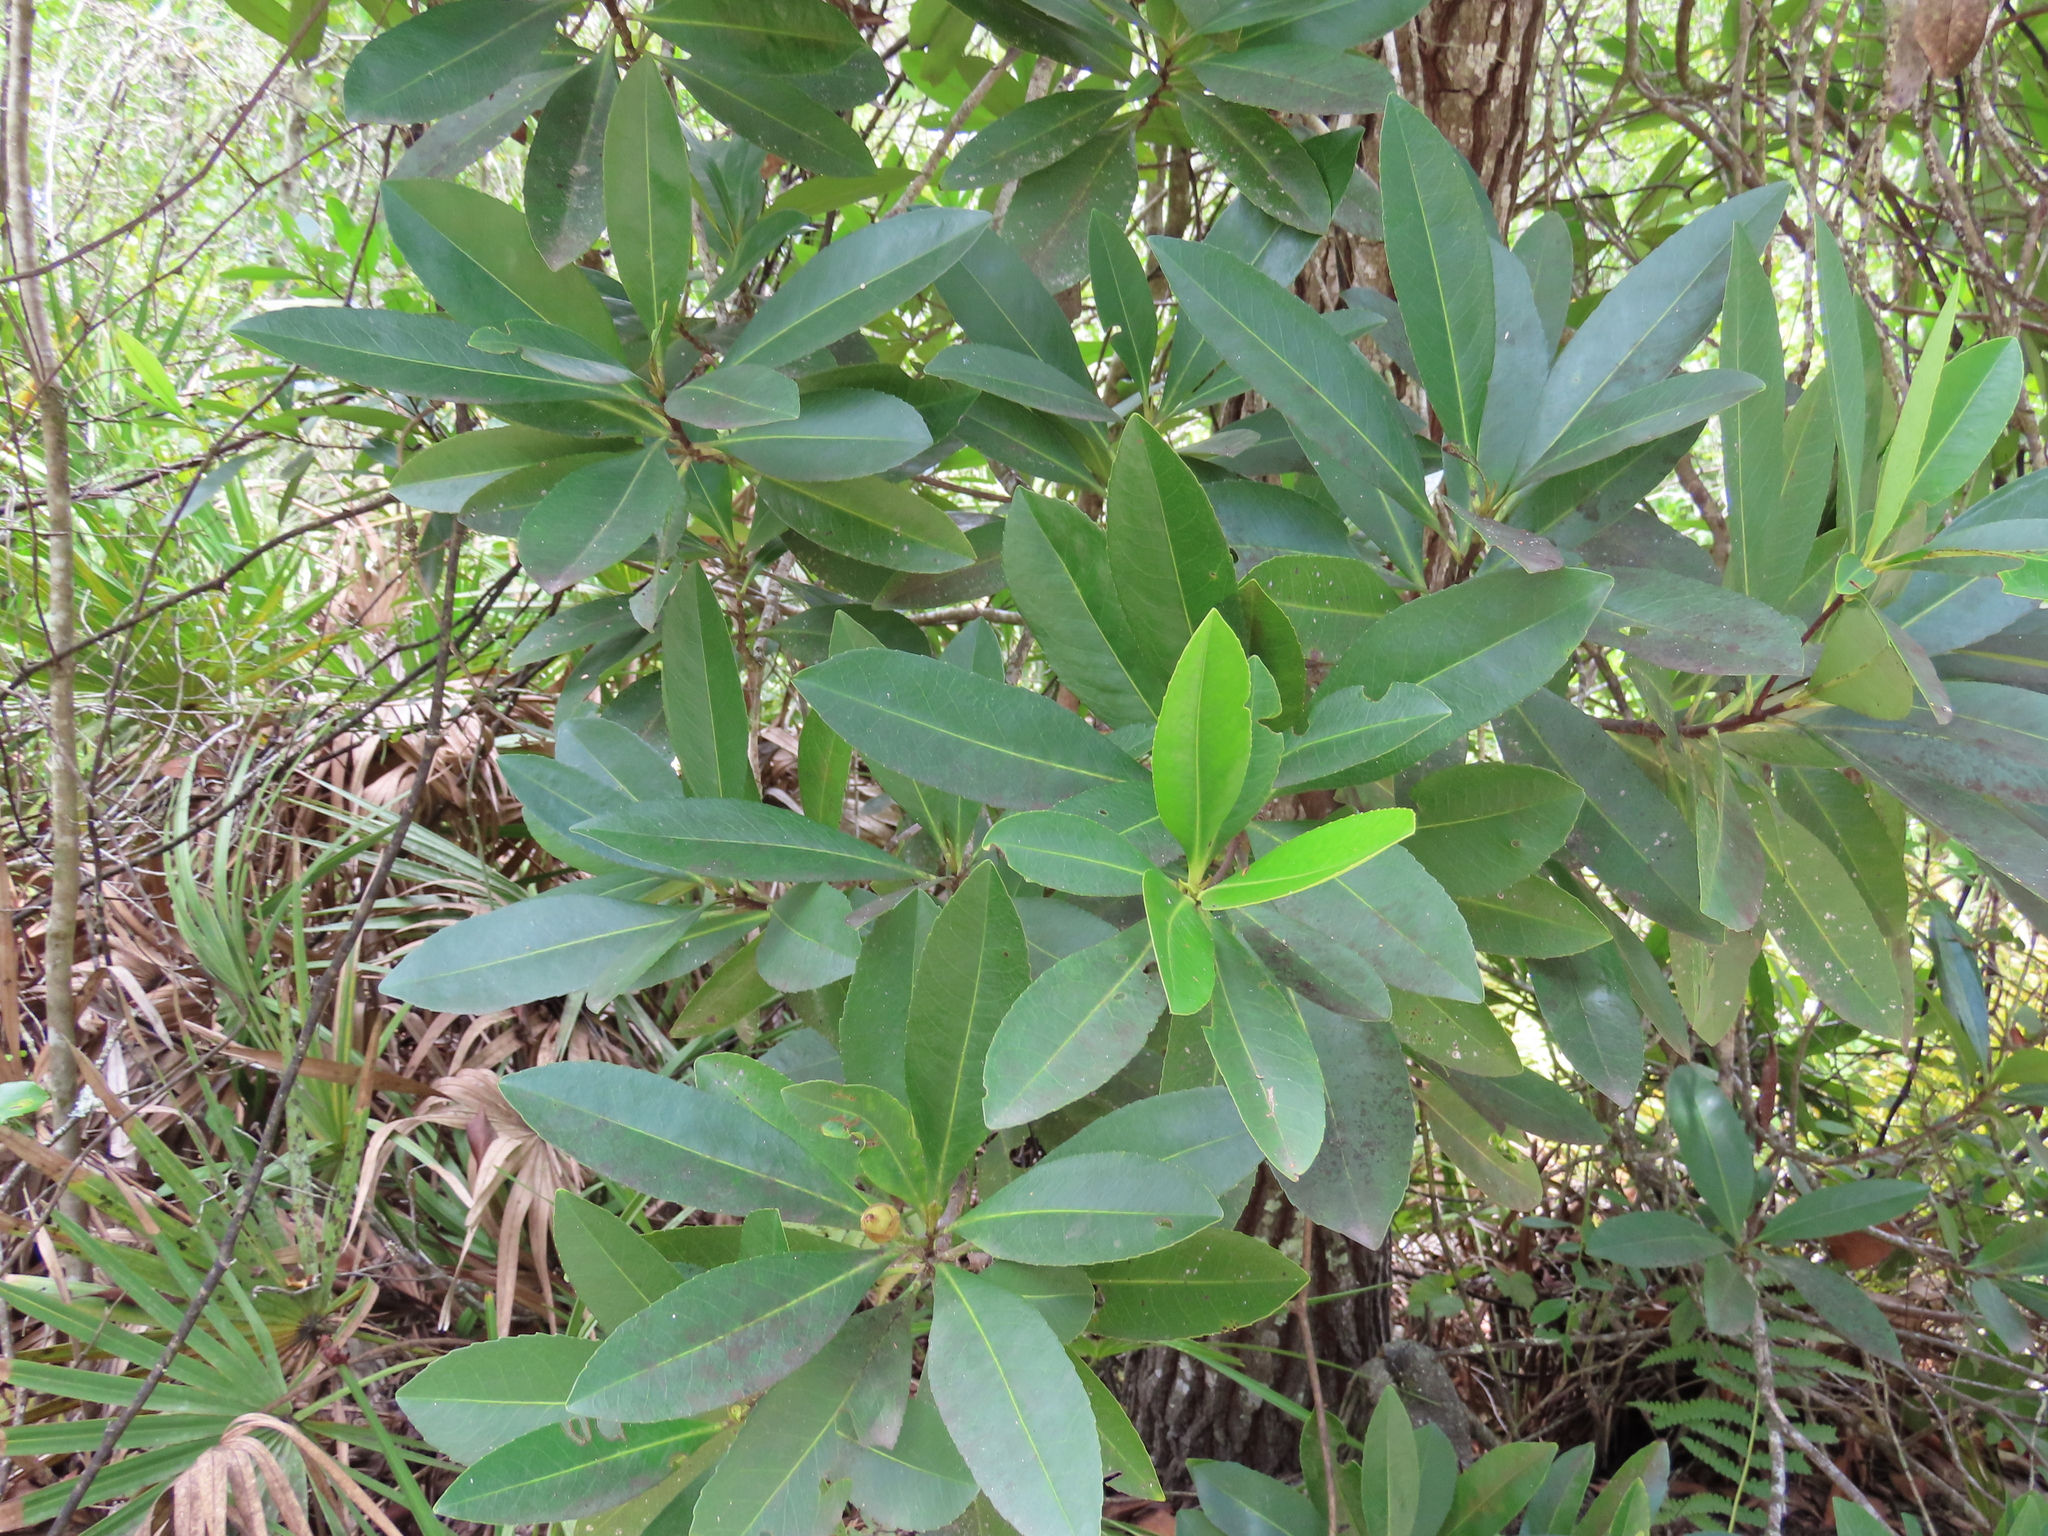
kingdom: Plantae
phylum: Tracheophyta
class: Magnoliopsida
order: Ericales
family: Theaceae
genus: Gordonia
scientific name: Gordonia lasianthus
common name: Loblolly bay
